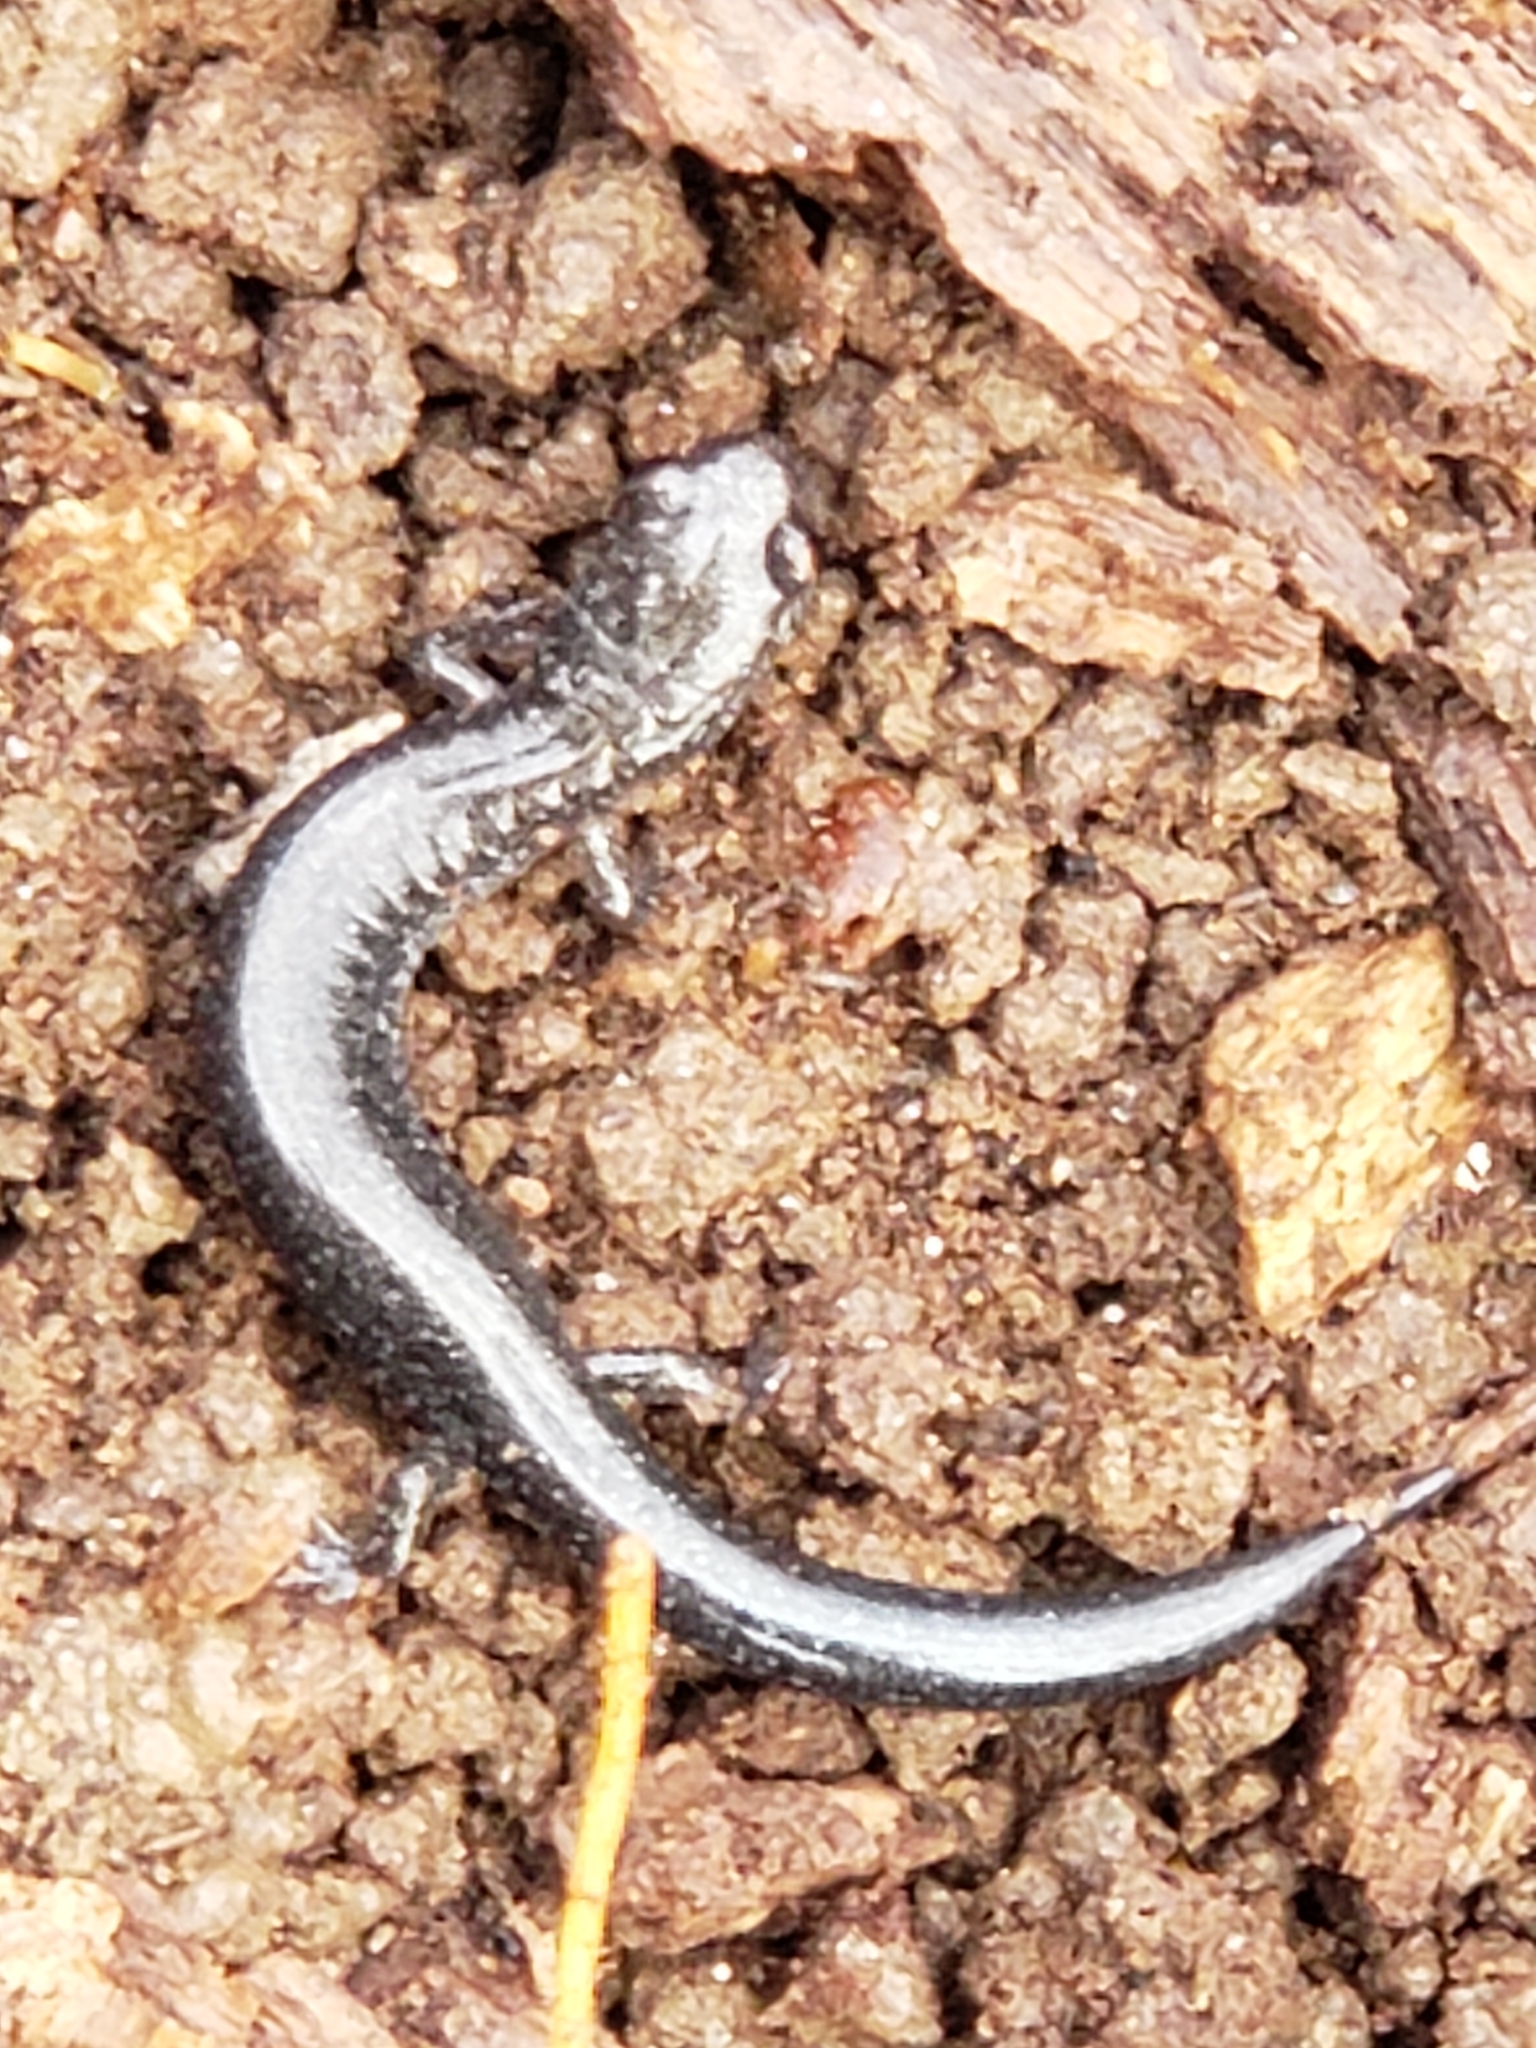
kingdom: Animalia
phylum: Chordata
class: Amphibia
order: Caudata
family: Plethodontidae
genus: Plethodon
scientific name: Plethodon cinereus
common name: Redback salamander
